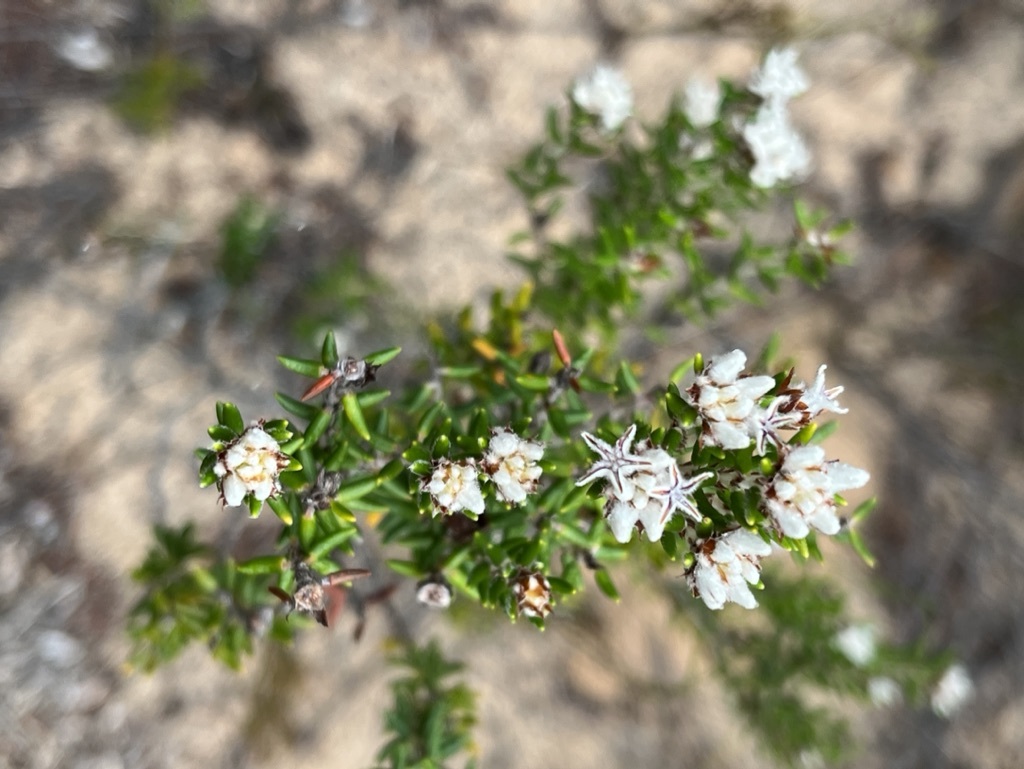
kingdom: Plantae
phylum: Tracheophyta
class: Magnoliopsida
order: Rosales
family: Rhamnaceae
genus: Trichocephalus
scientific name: Trichocephalus stipularis
